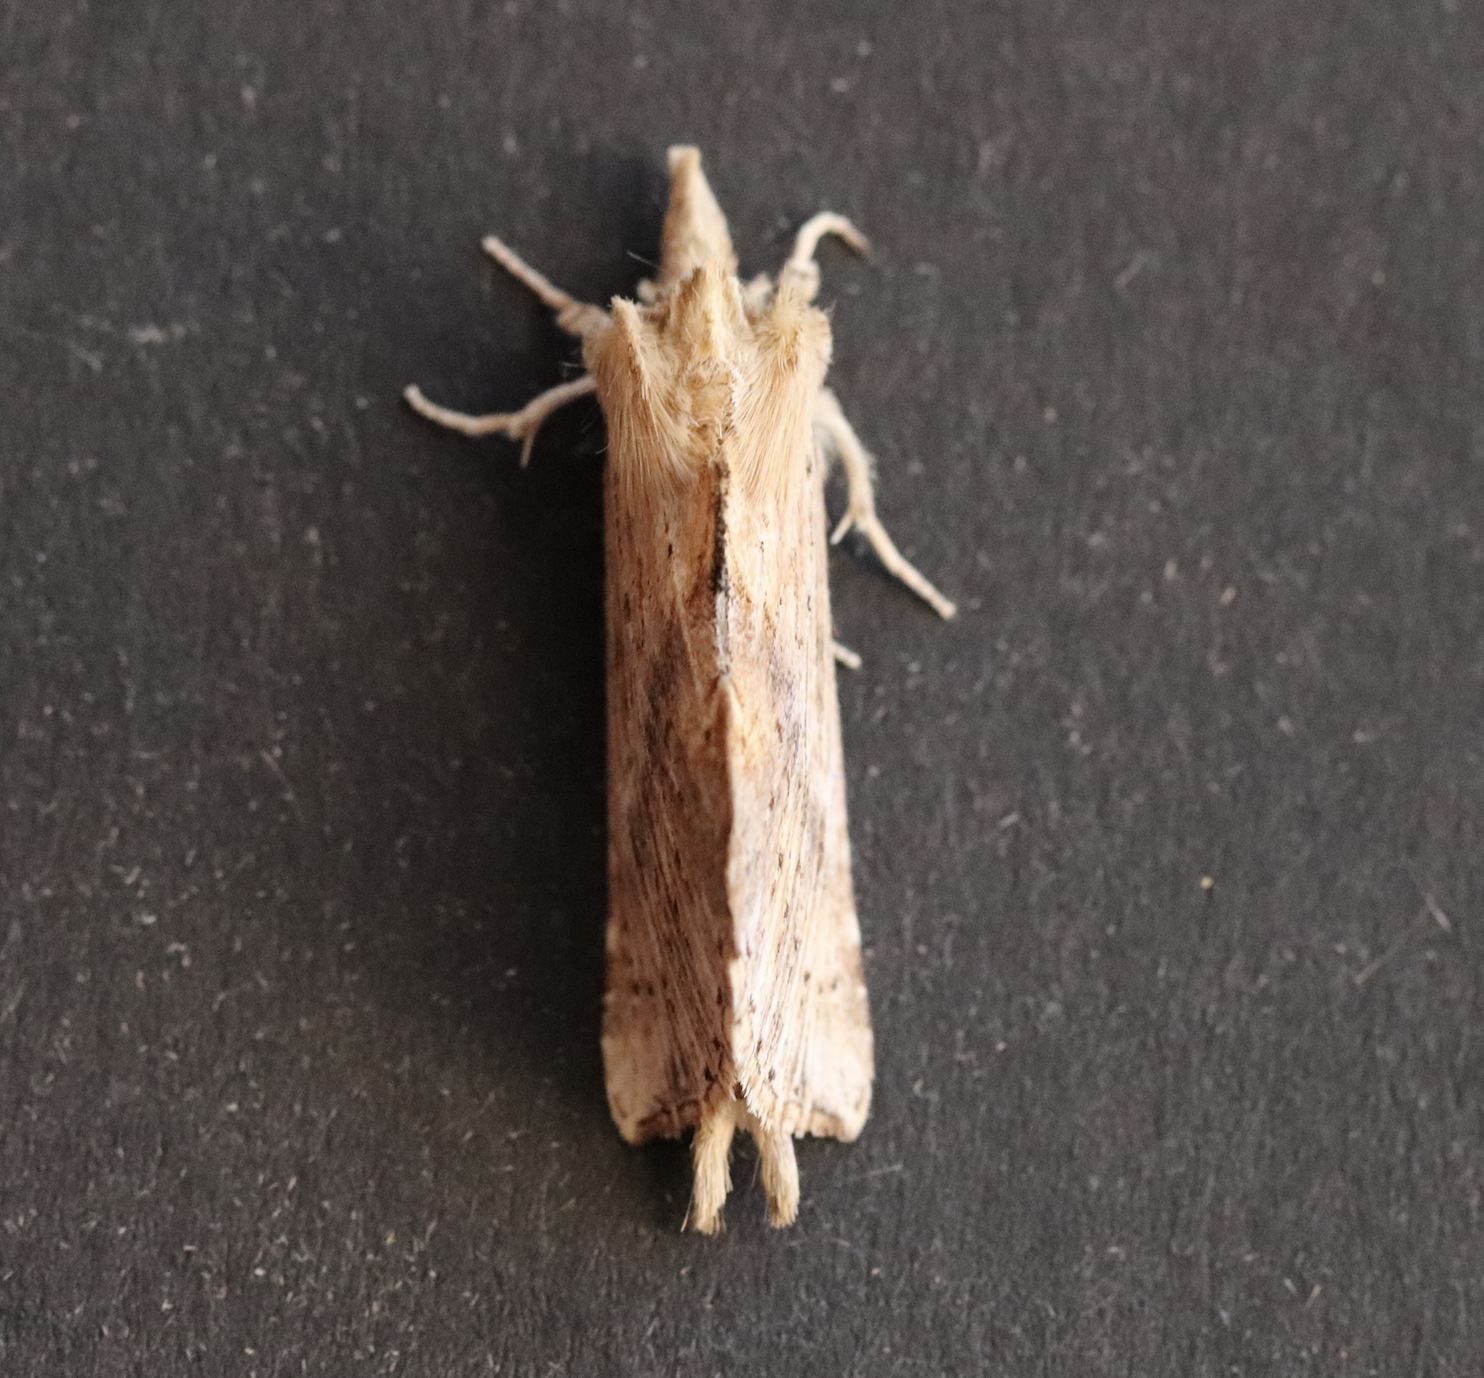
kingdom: Animalia
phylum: Arthropoda
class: Insecta
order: Lepidoptera
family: Notodontidae
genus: Pterostoma
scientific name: Pterostoma palpina
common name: Pale prominent
